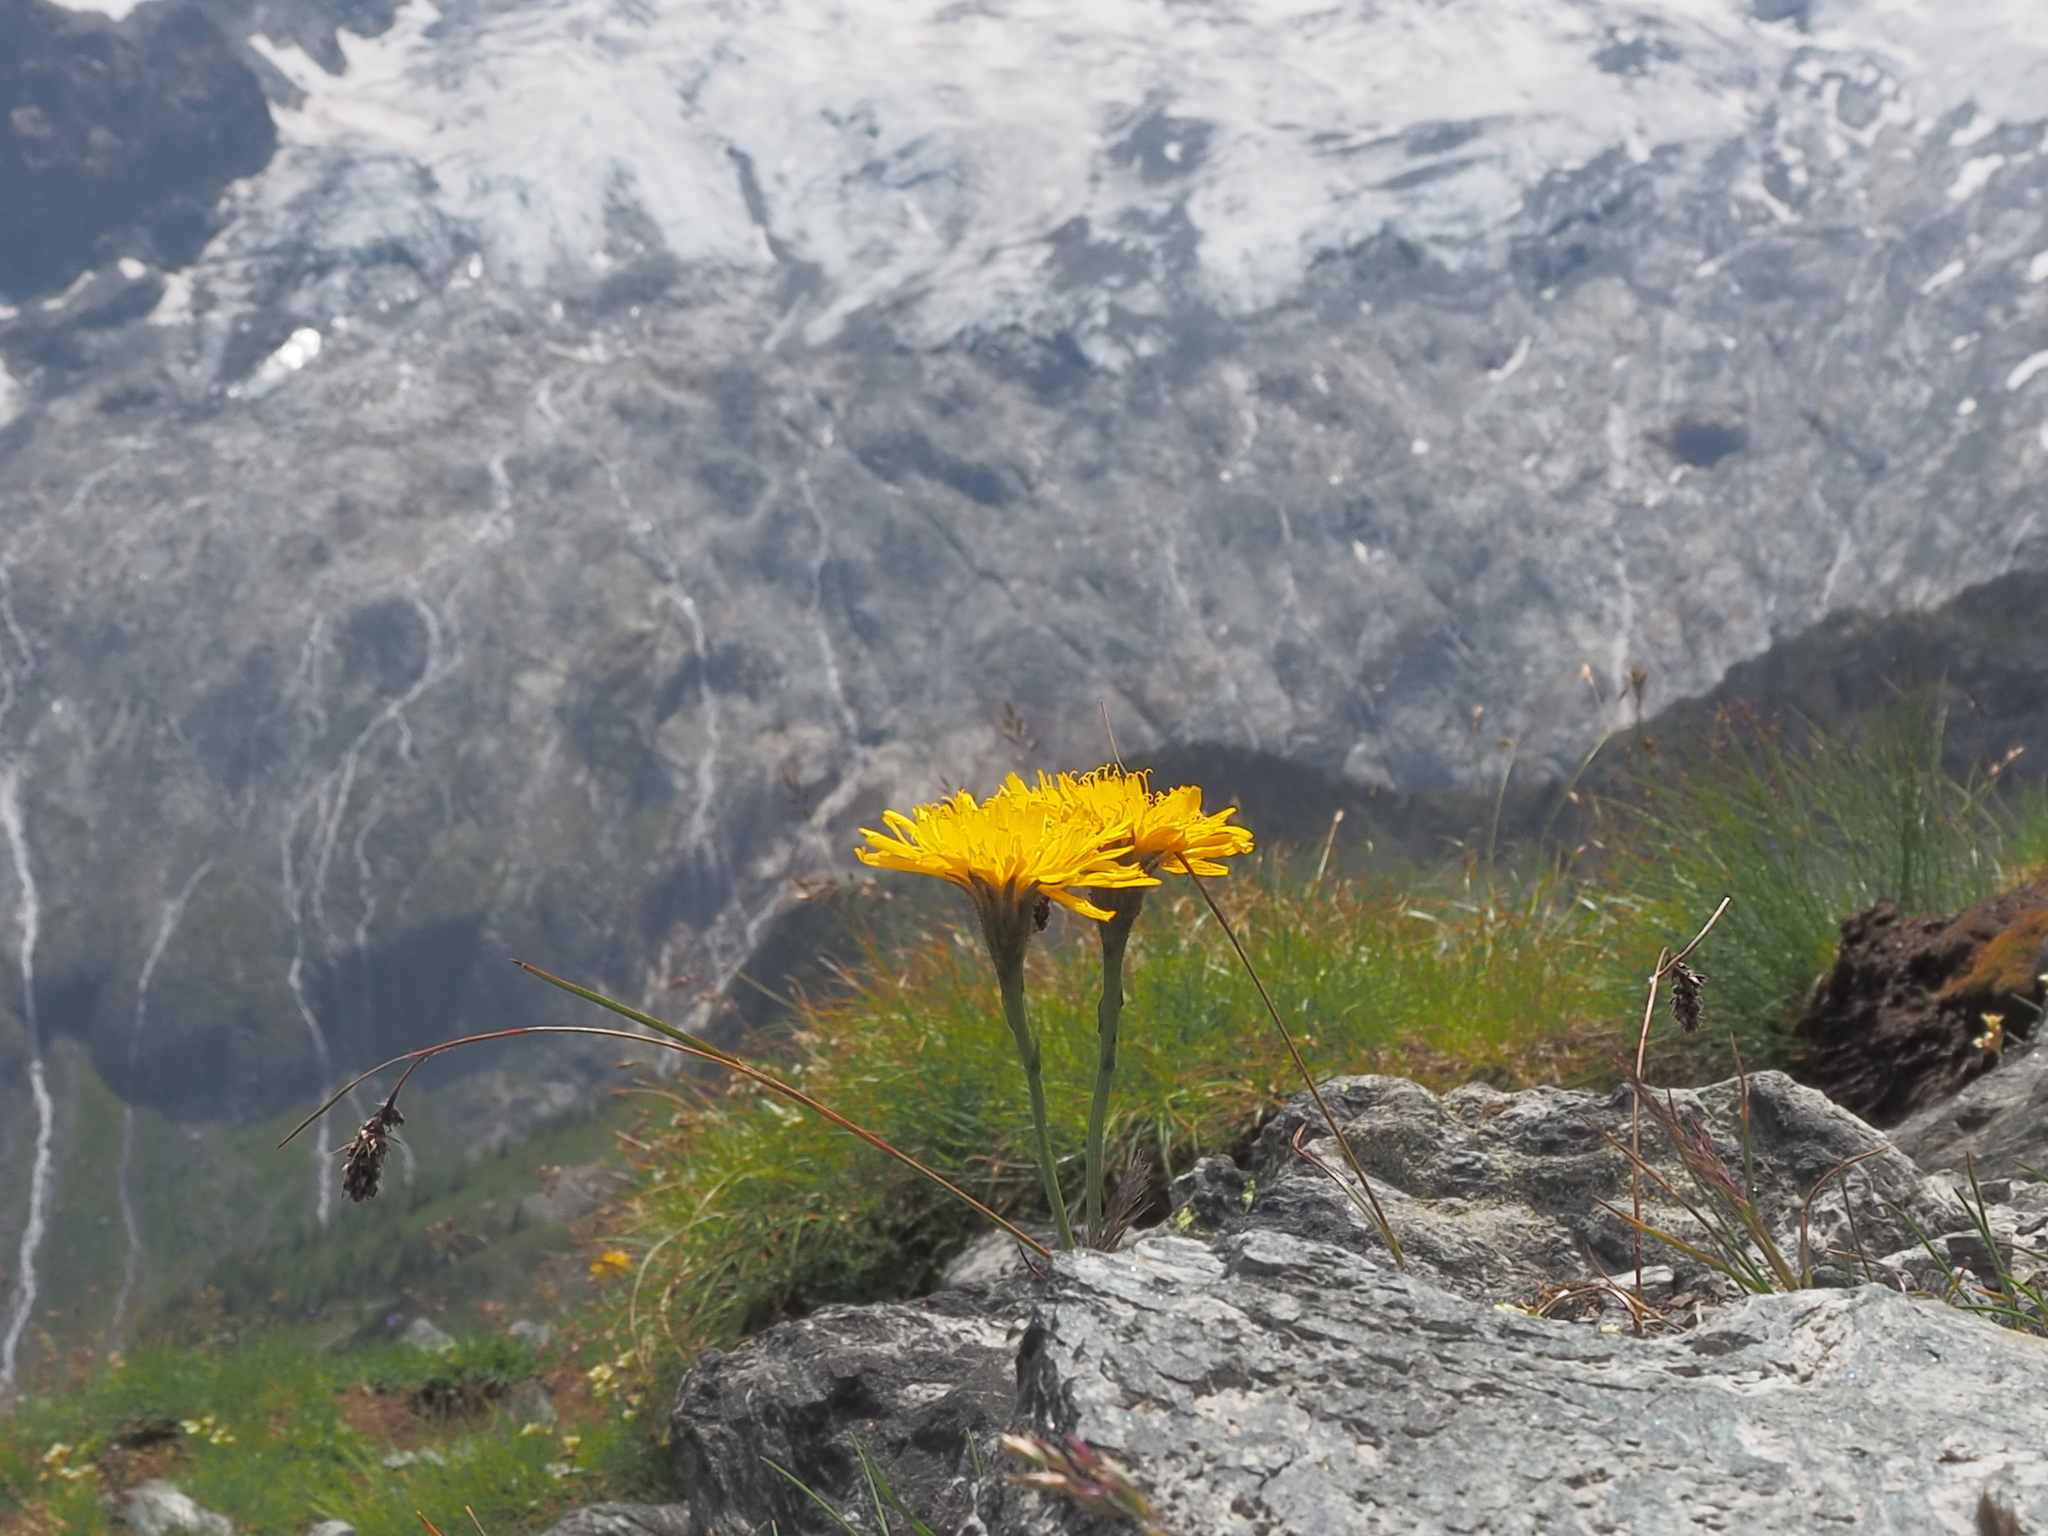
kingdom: Plantae
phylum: Tracheophyta
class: Magnoliopsida
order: Asterales
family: Asteraceae
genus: Scorzoneroides
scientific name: Scorzoneroides helvetica
